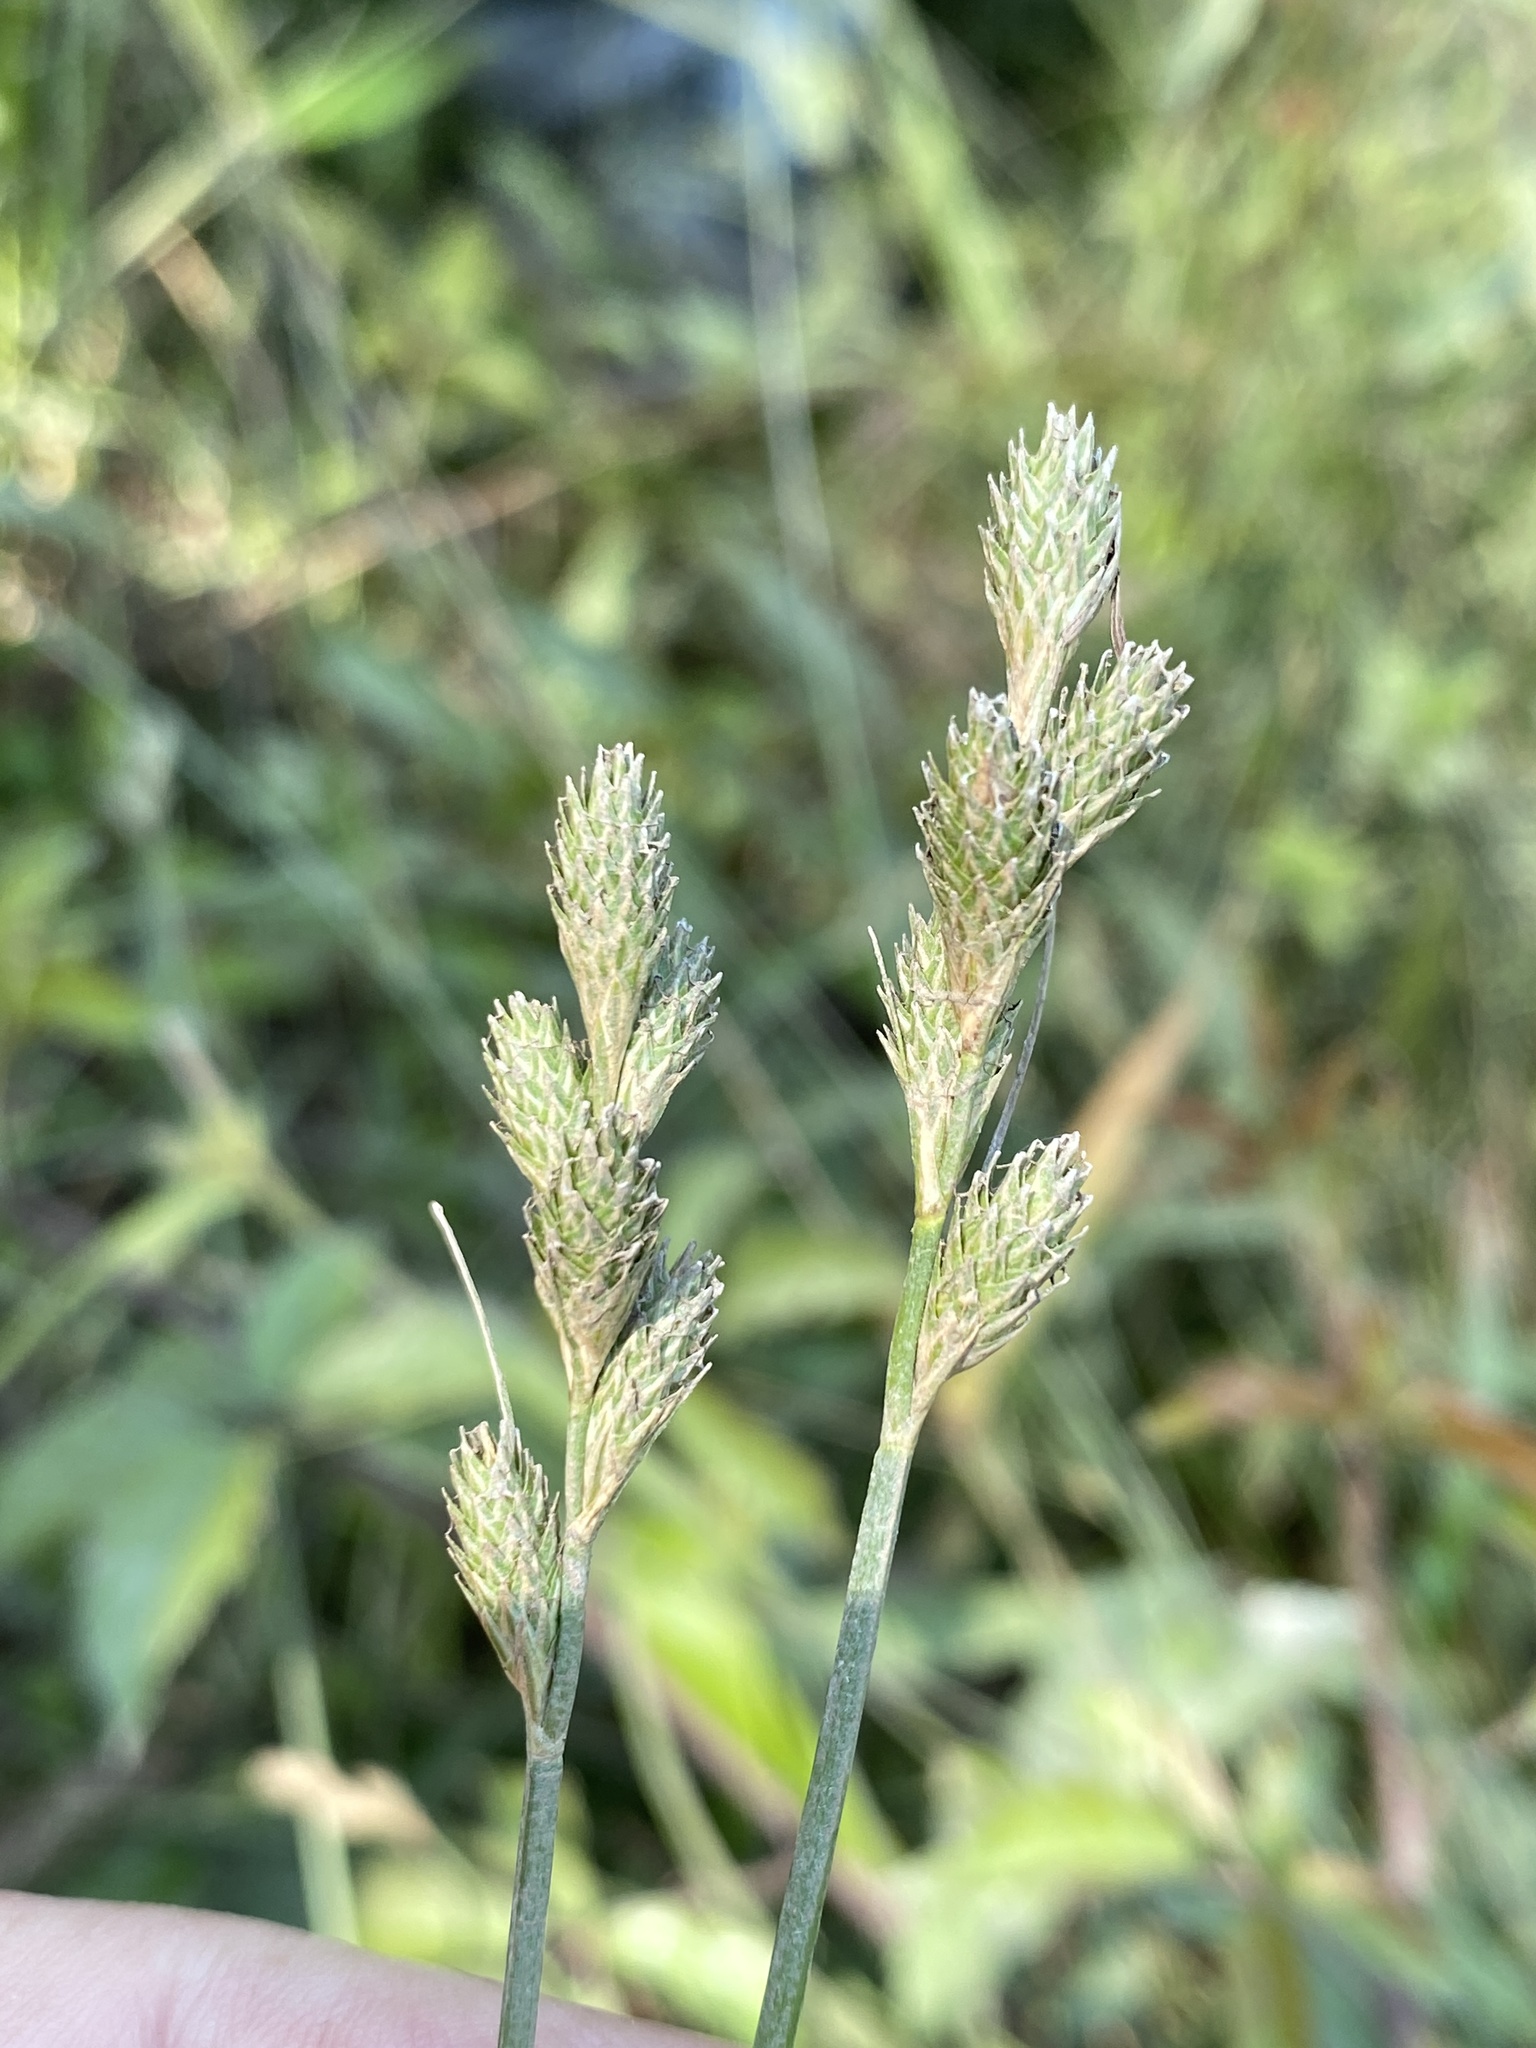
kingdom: Plantae
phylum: Tracheophyta
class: Liliopsida
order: Poales
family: Cyperaceae
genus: Carex
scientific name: Carex longii
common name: Long's sedge
